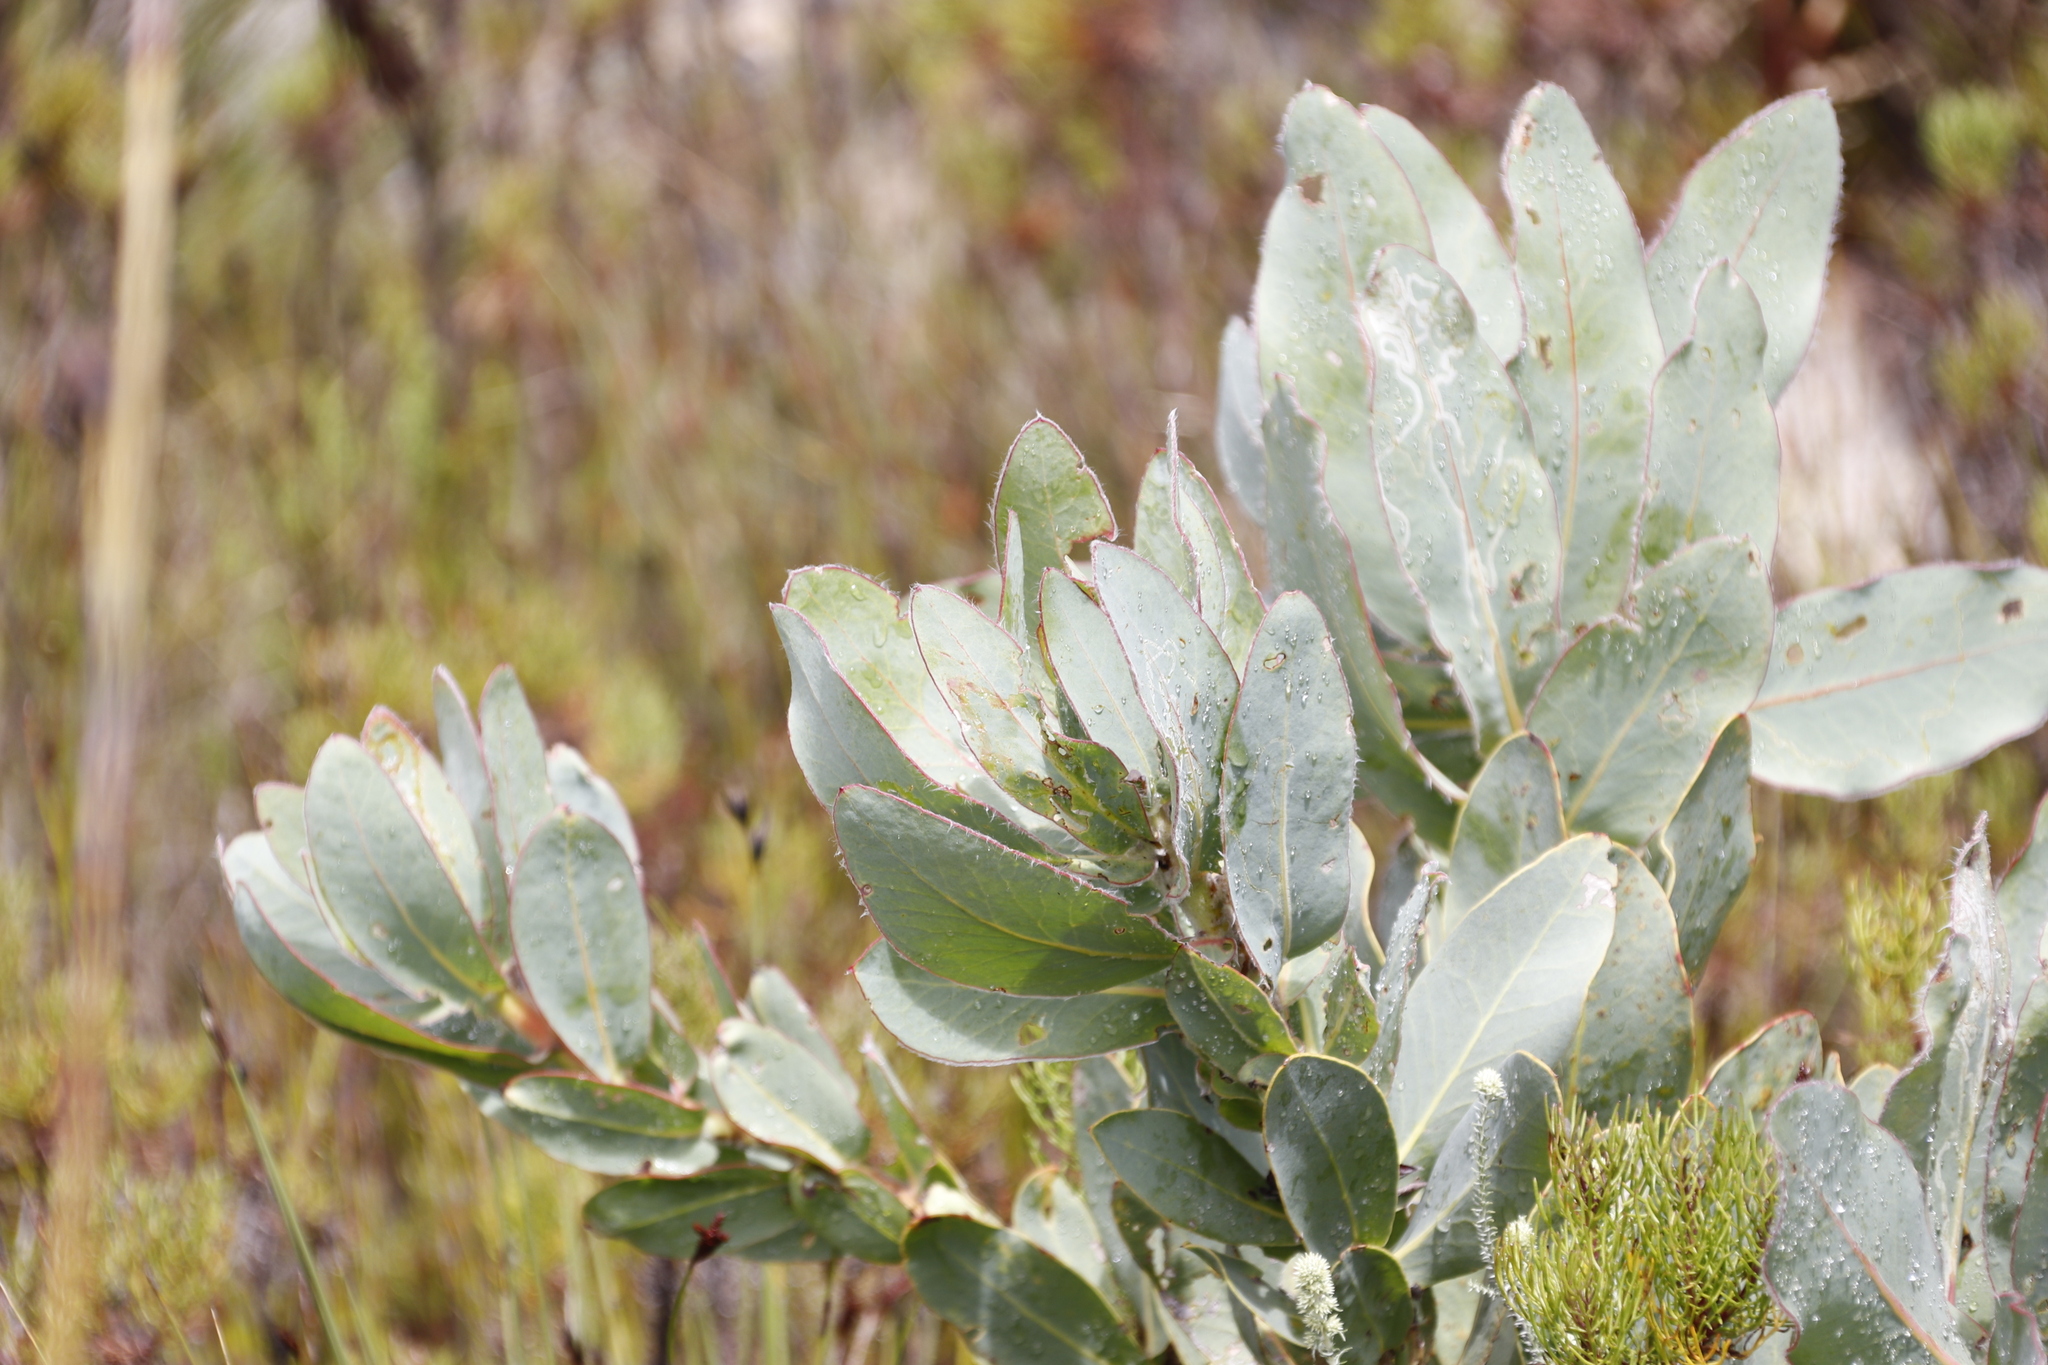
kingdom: Plantae
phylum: Tracheophyta
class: Magnoliopsida
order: Proteales
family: Proteaceae
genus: Protea
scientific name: Protea magnifica
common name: Bearded sugarbush
